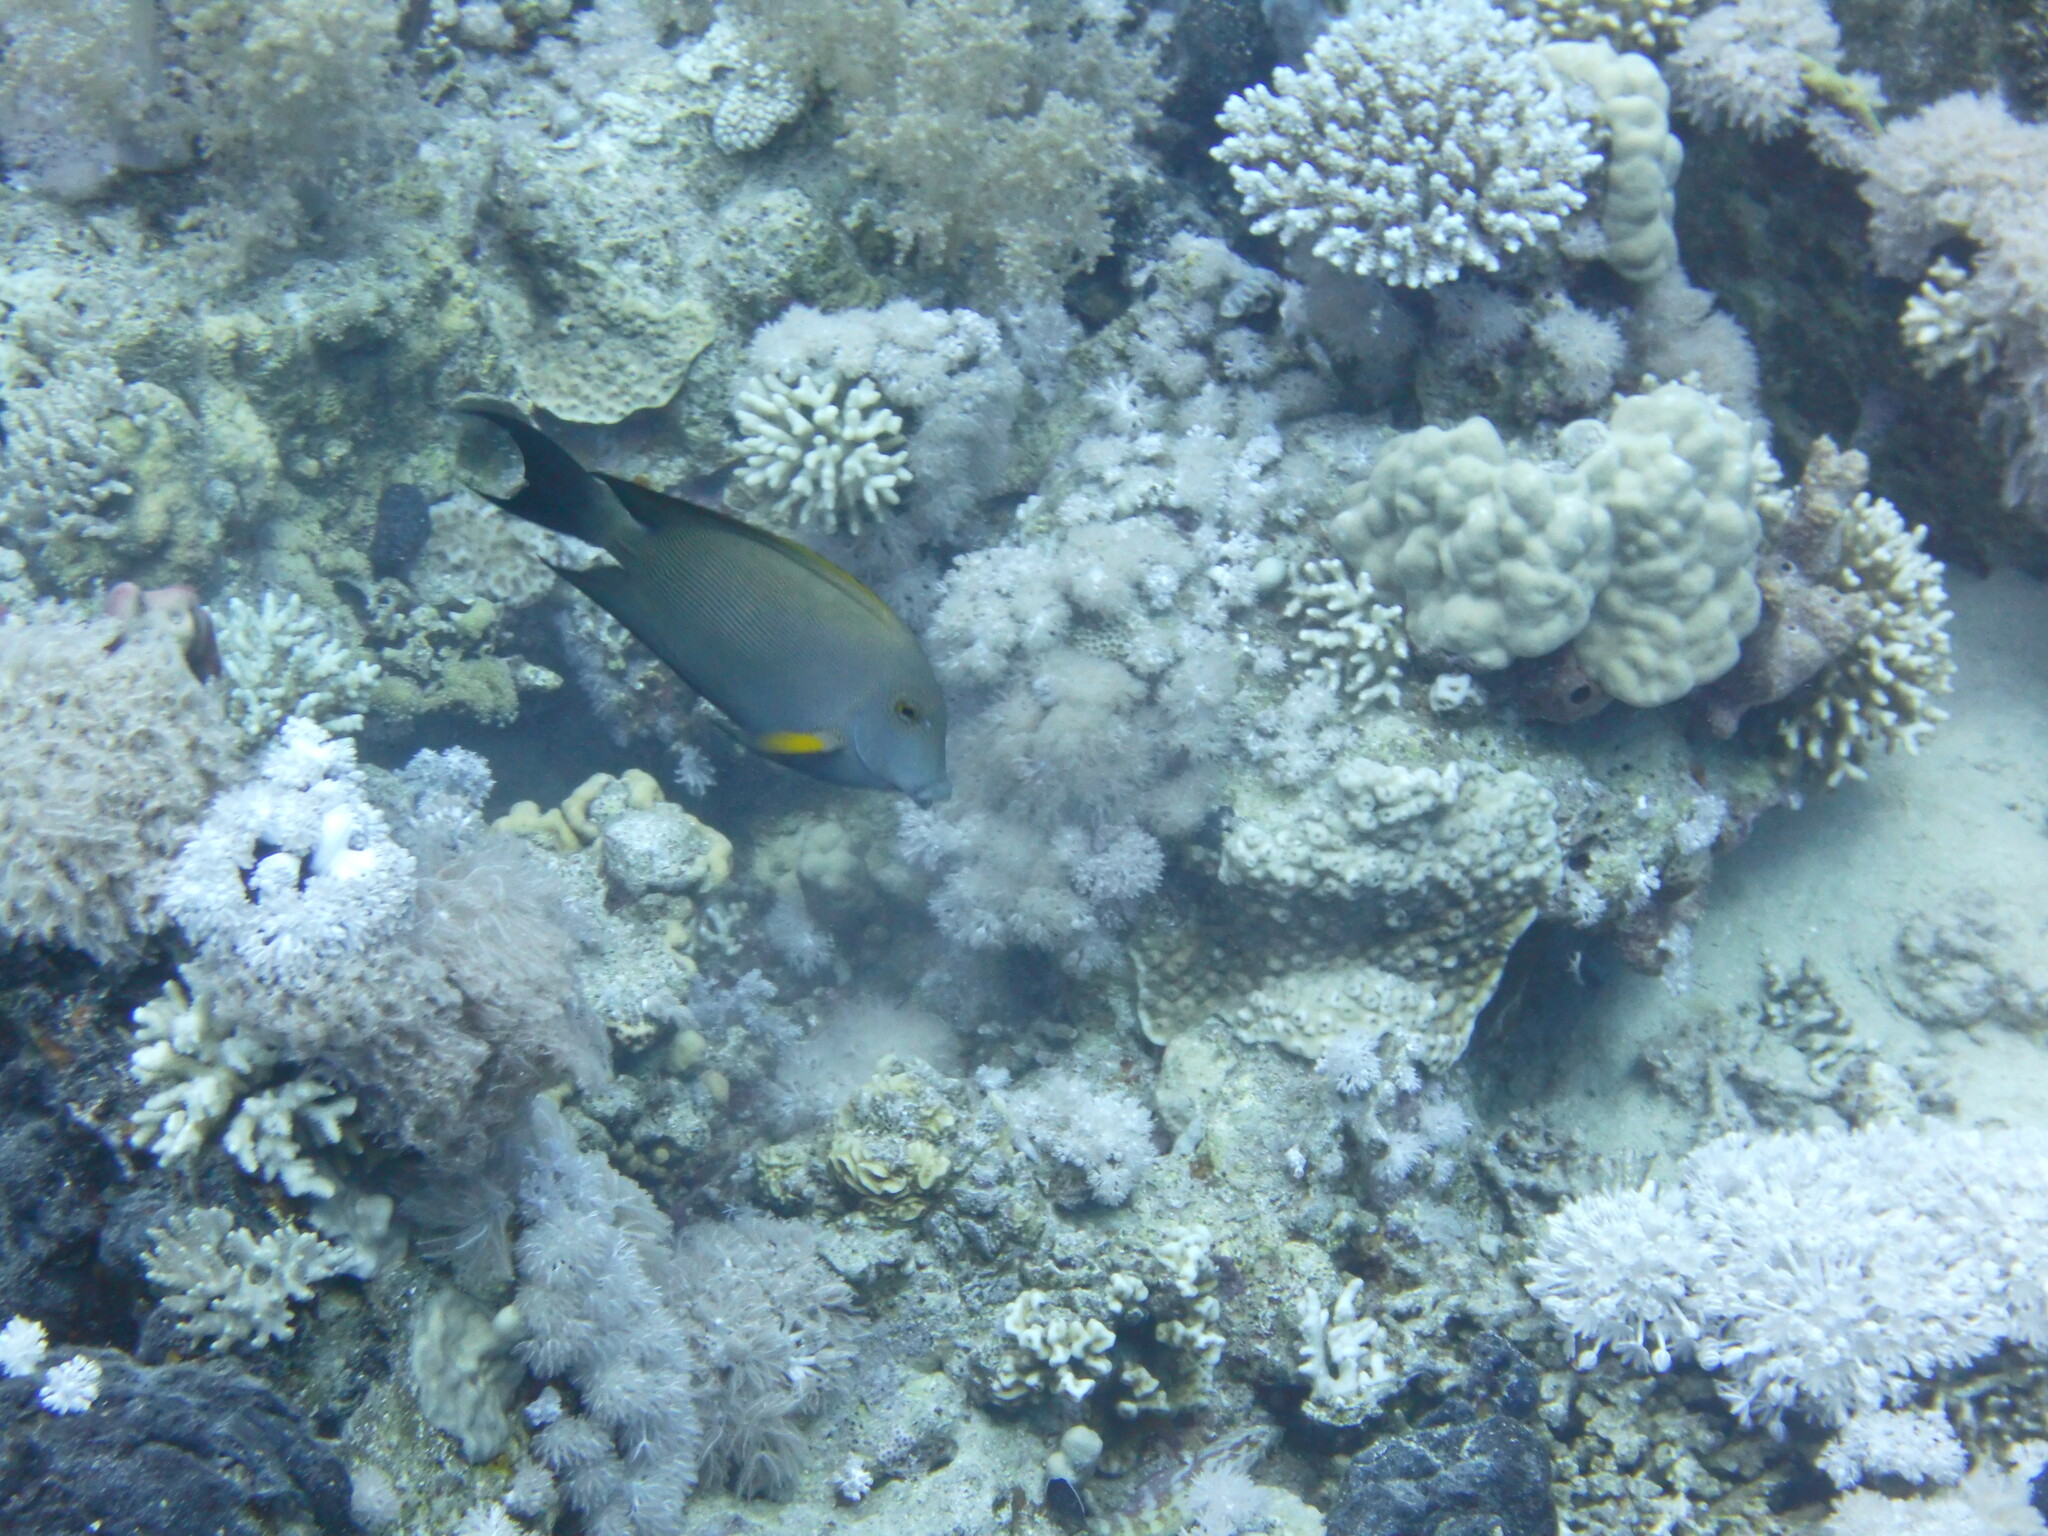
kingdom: Animalia
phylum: Chordata
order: Perciformes
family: Acanthuridae
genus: Ctenochaetus
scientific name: Ctenochaetus striatus
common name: Bristle-toothed surgeonfish
